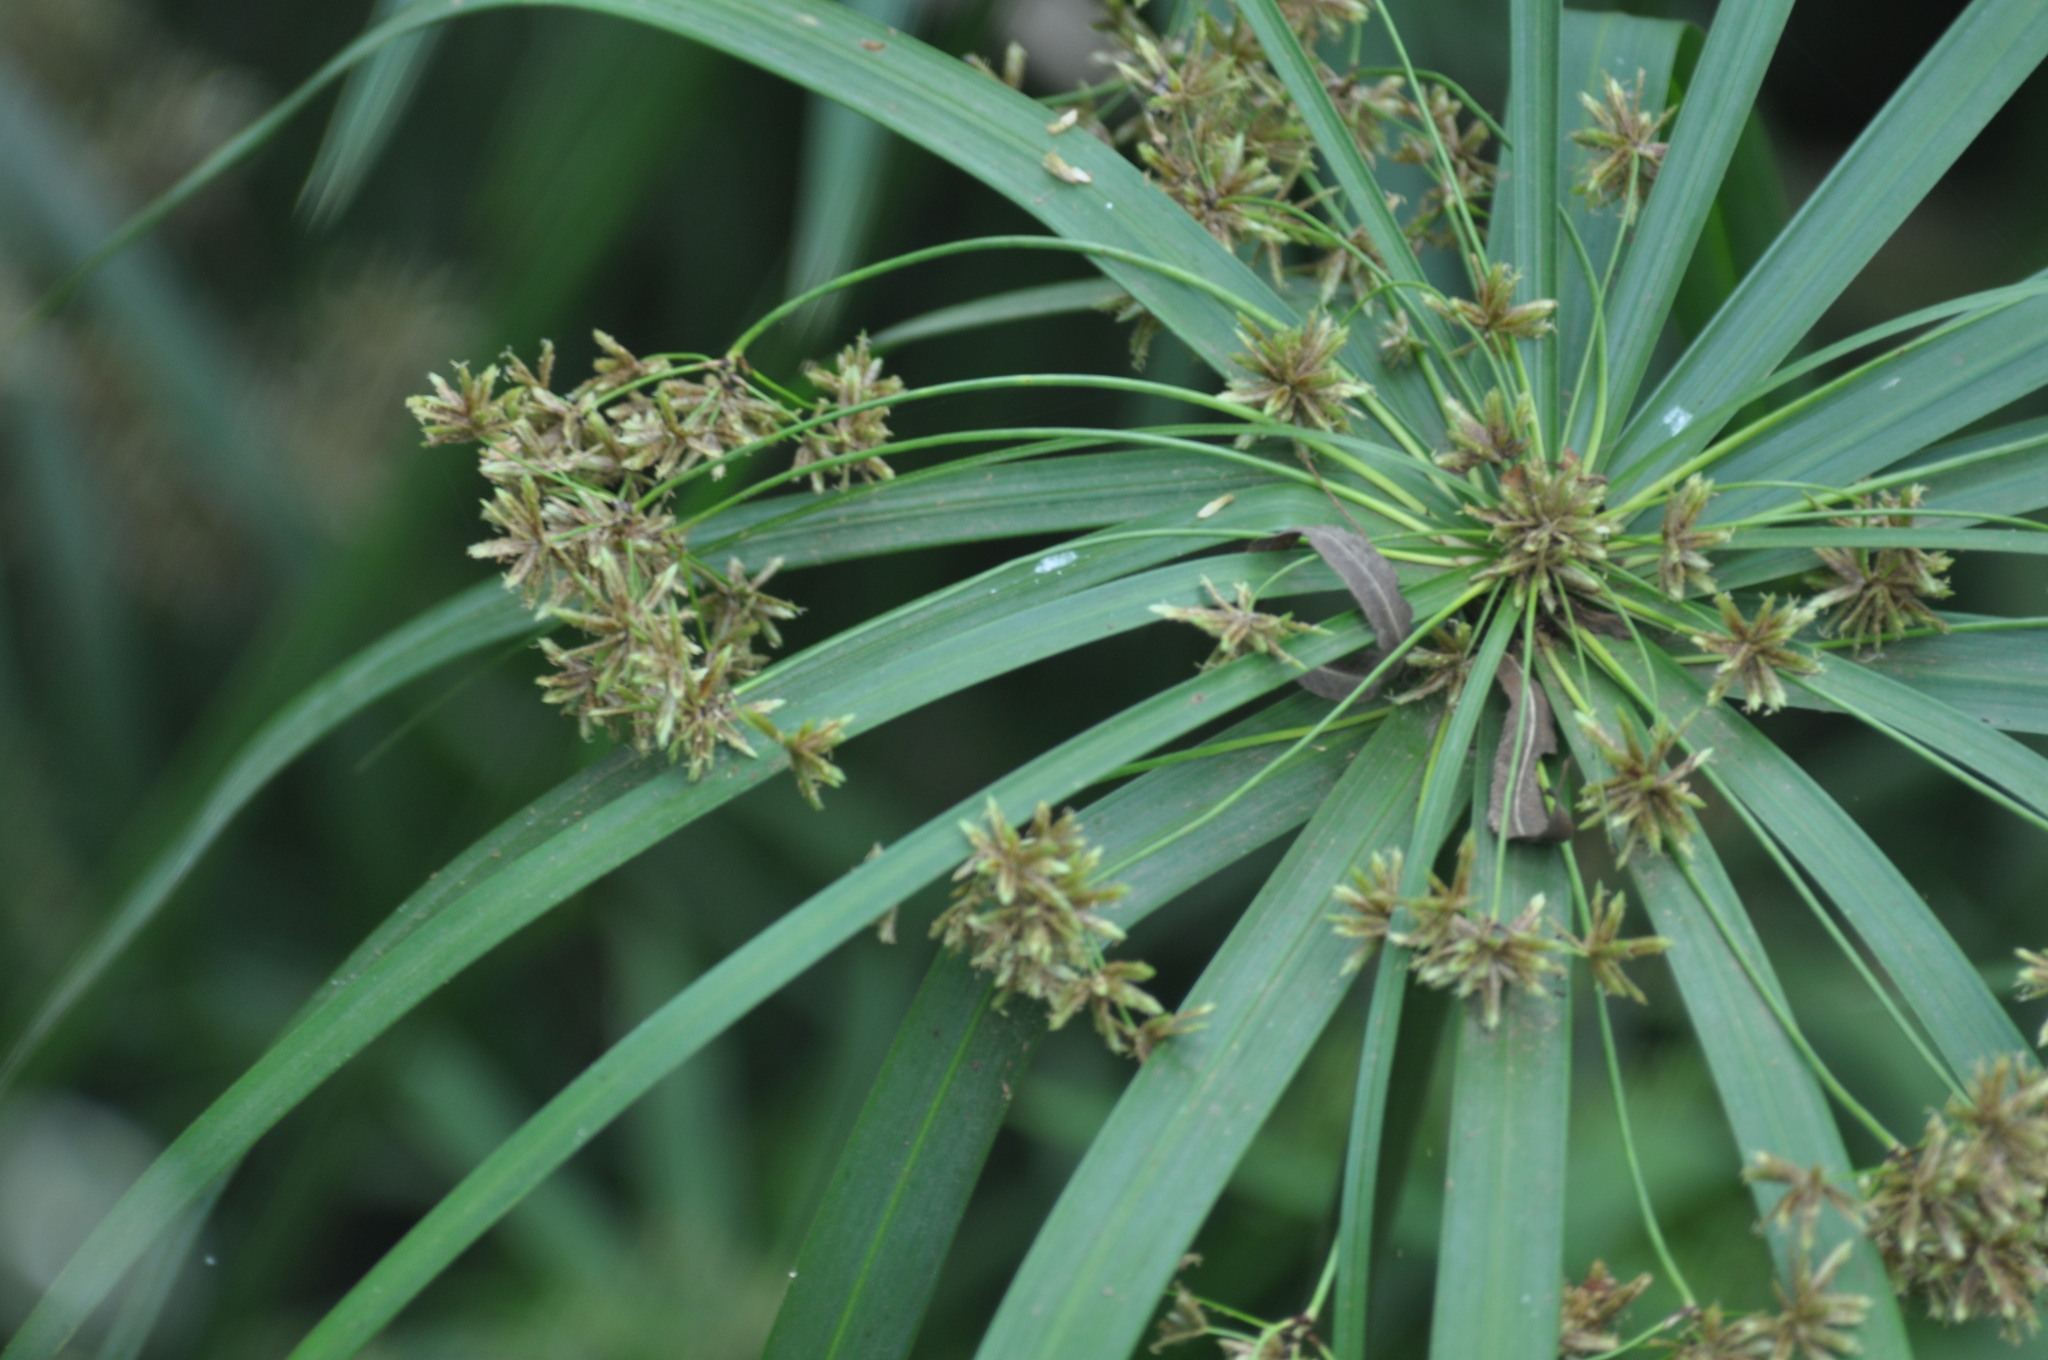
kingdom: Plantae
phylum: Tracheophyta
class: Liliopsida
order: Poales
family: Cyperaceae
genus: Cyperus
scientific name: Cyperus alternifolius
